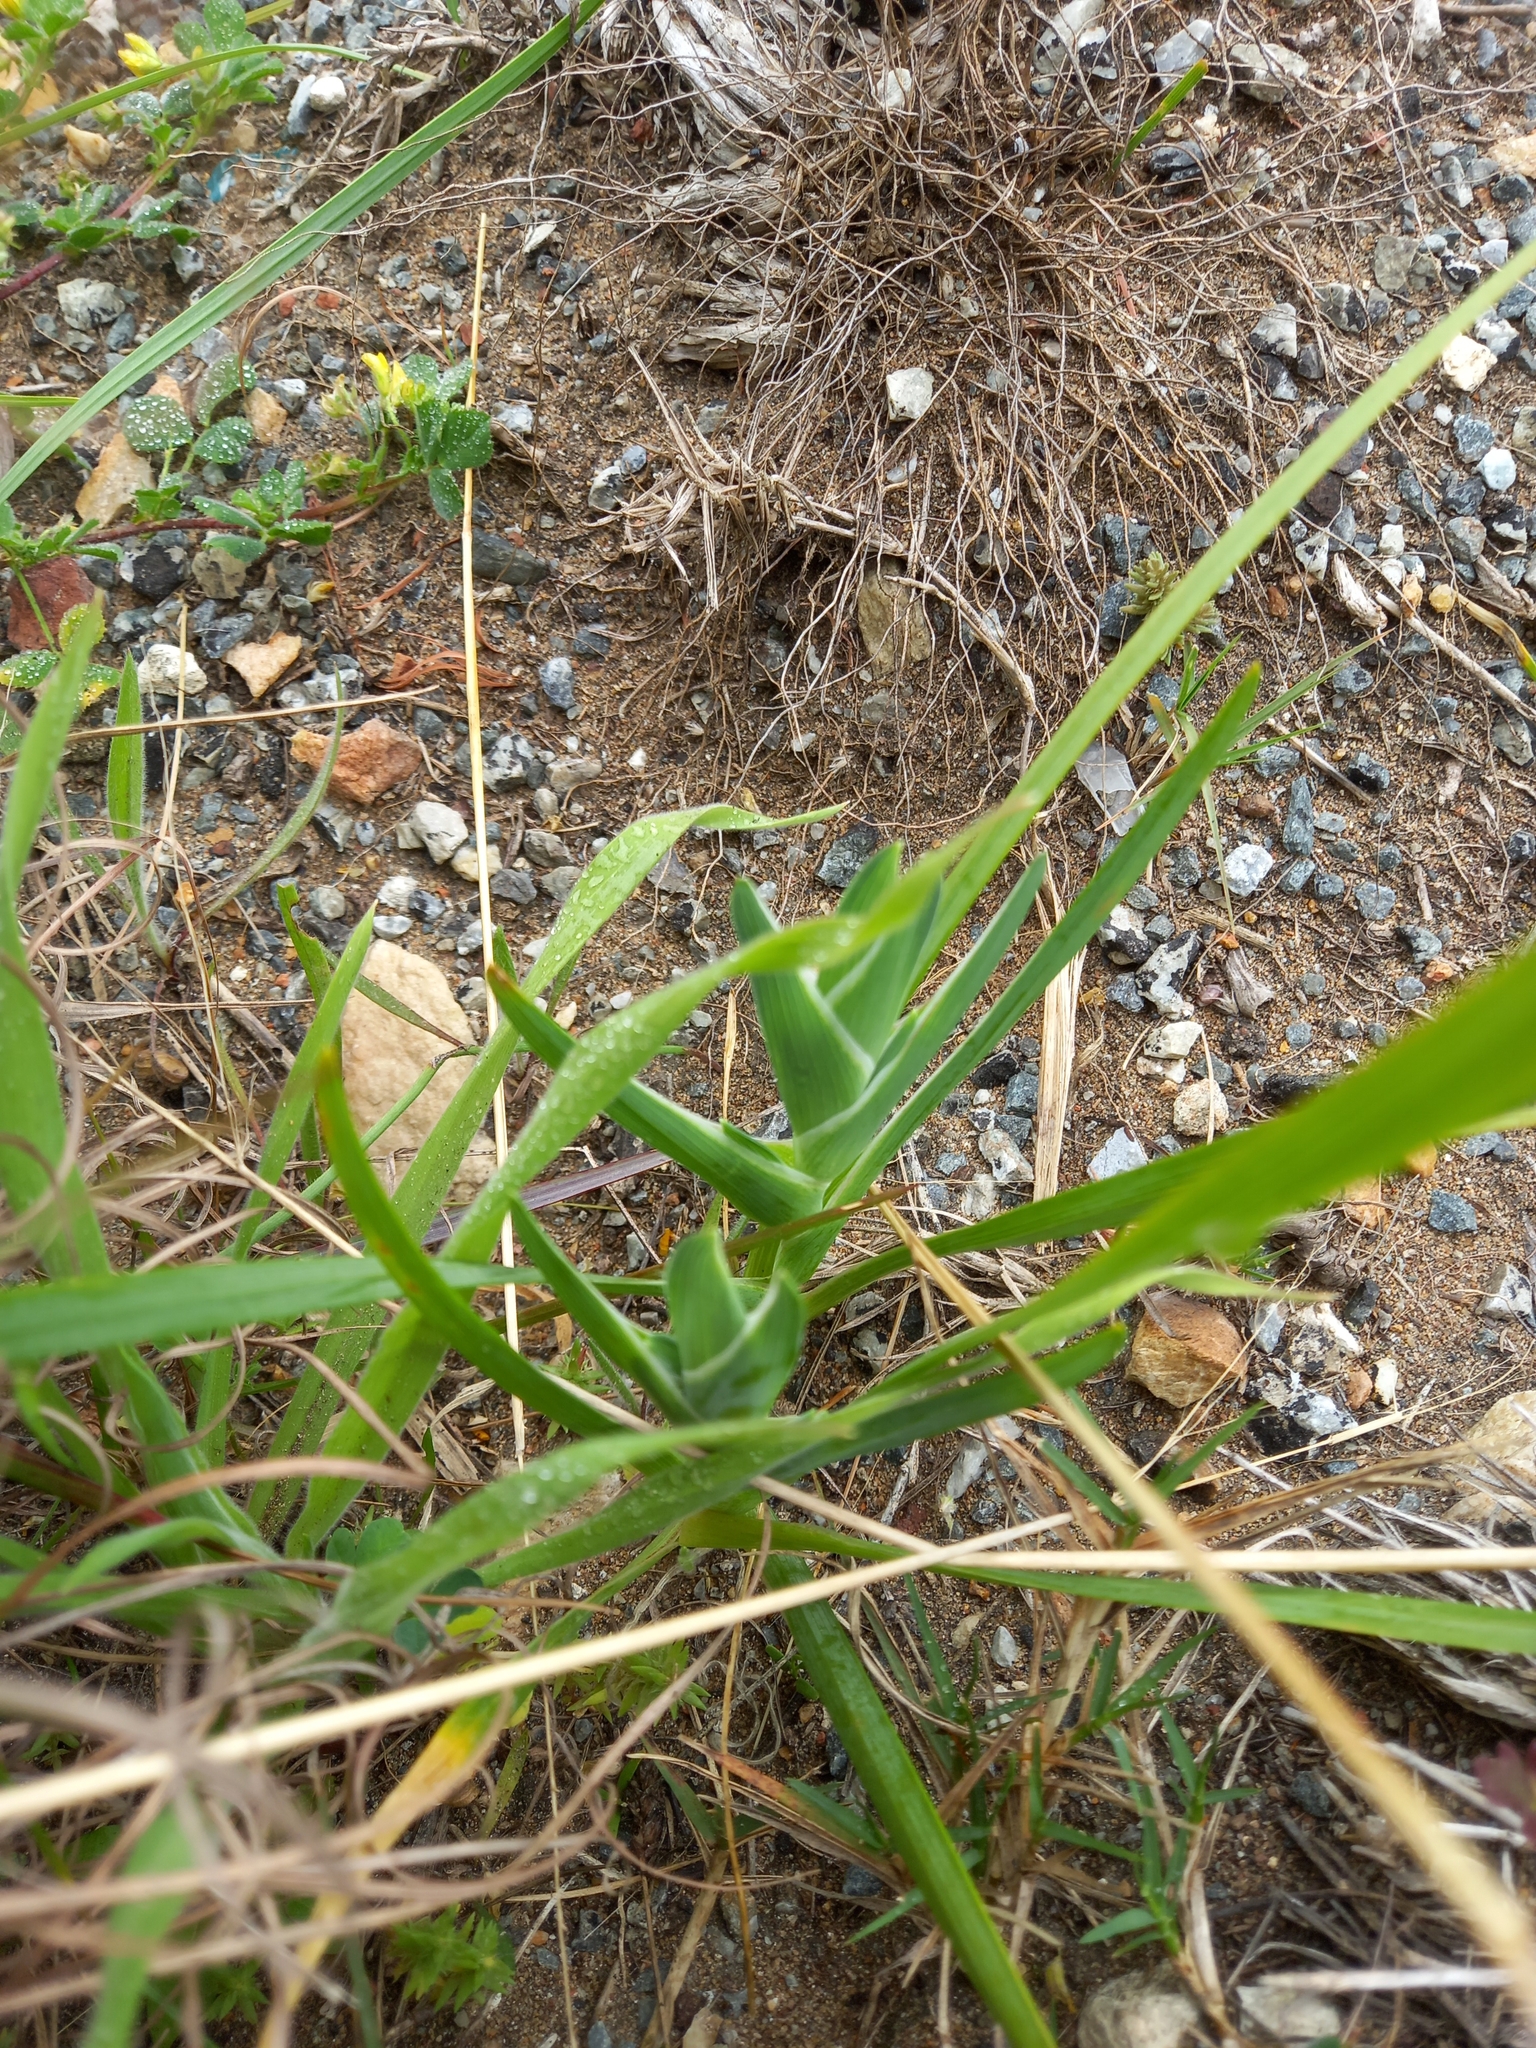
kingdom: Plantae
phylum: Tracheophyta
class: Liliopsida
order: Asparagales
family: Iridaceae
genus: Ferraria
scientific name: Ferraria crispa
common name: Black-flag
